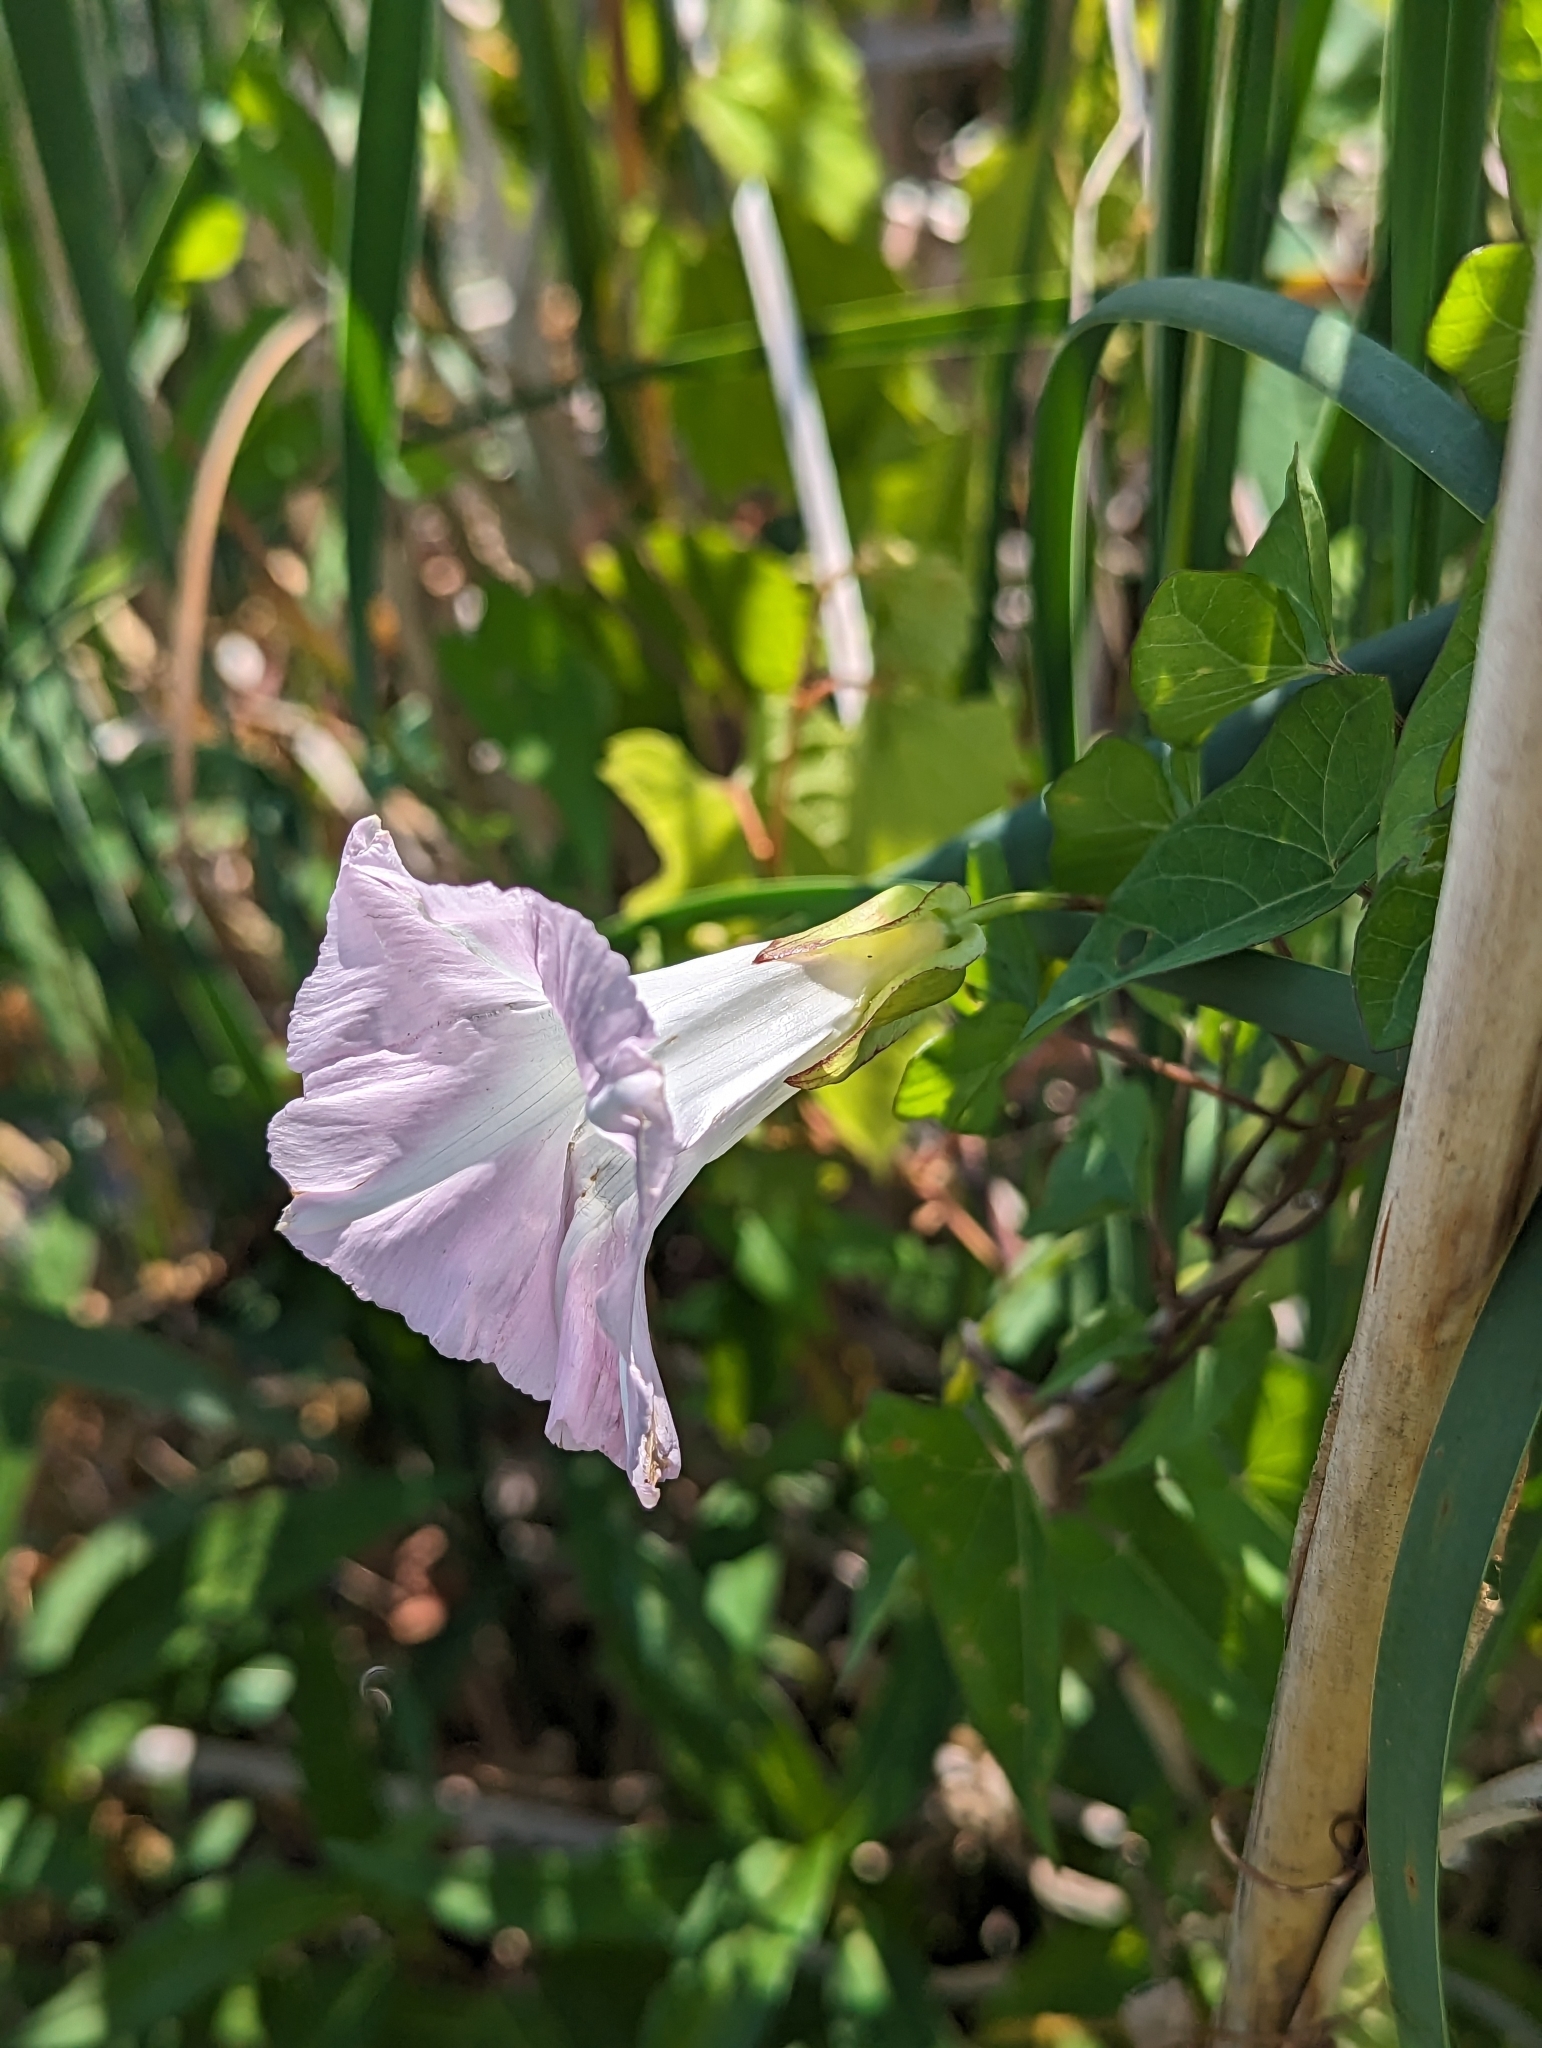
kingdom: Plantae
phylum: Tracheophyta
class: Magnoliopsida
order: Solanales
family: Convolvulaceae
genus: Calystegia
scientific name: Calystegia sepium
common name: Hedge bindweed
